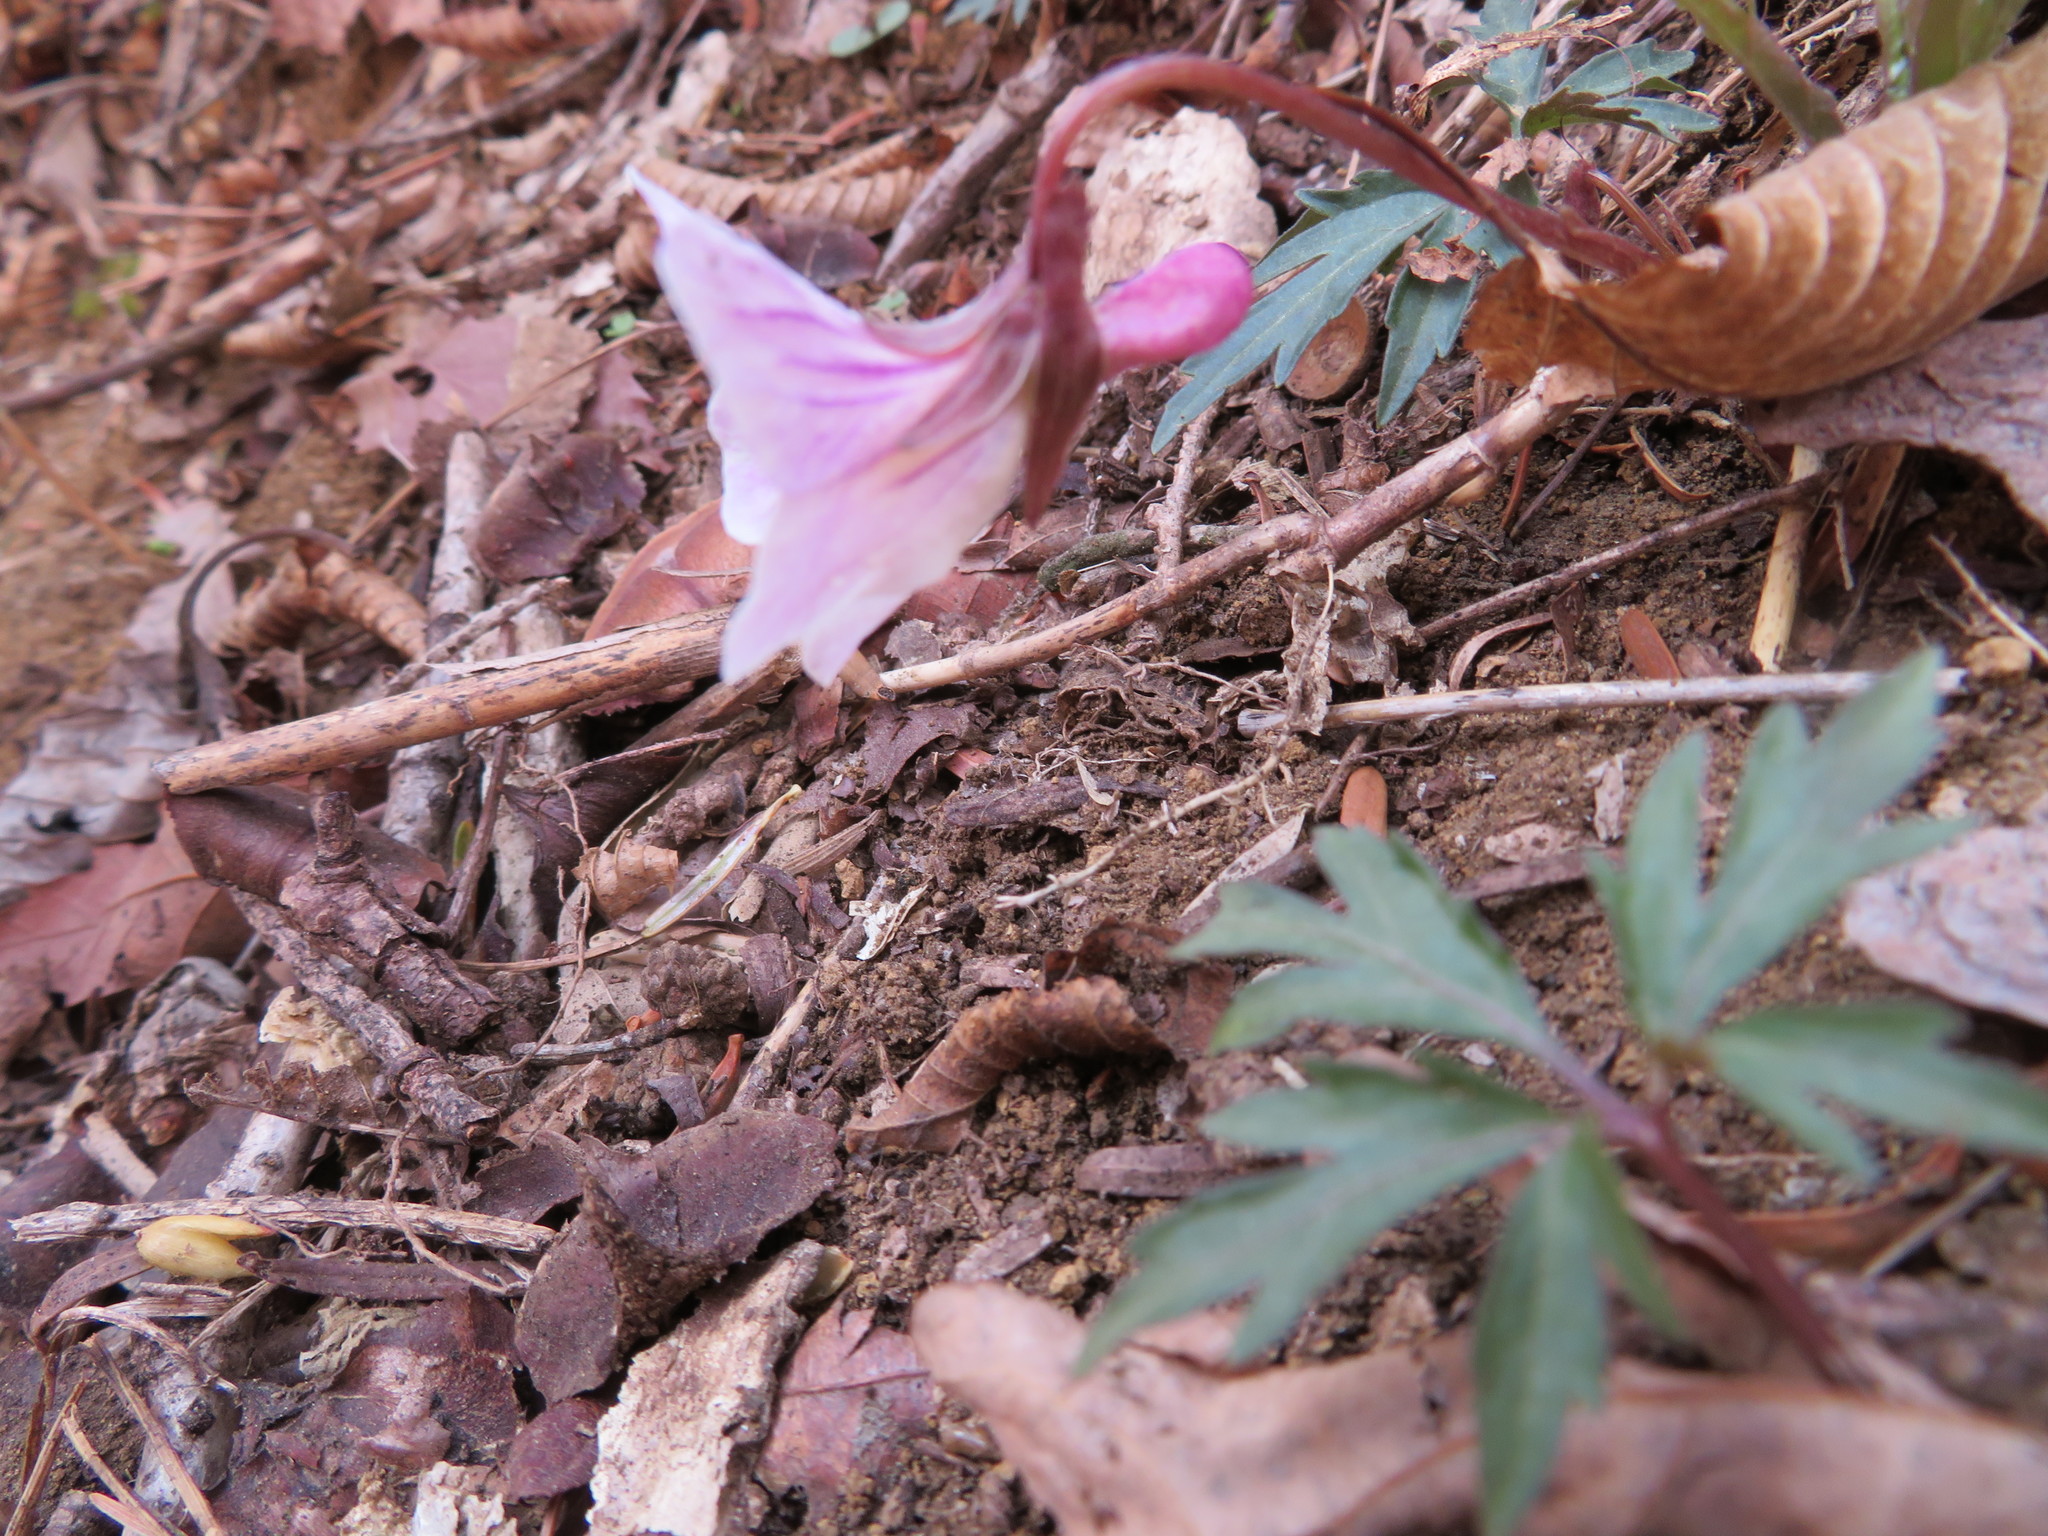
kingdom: Plantae
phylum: Tracheophyta
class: Magnoliopsida
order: Malpighiales
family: Violaceae
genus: Viola
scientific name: Viola albida
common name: Korean violet
